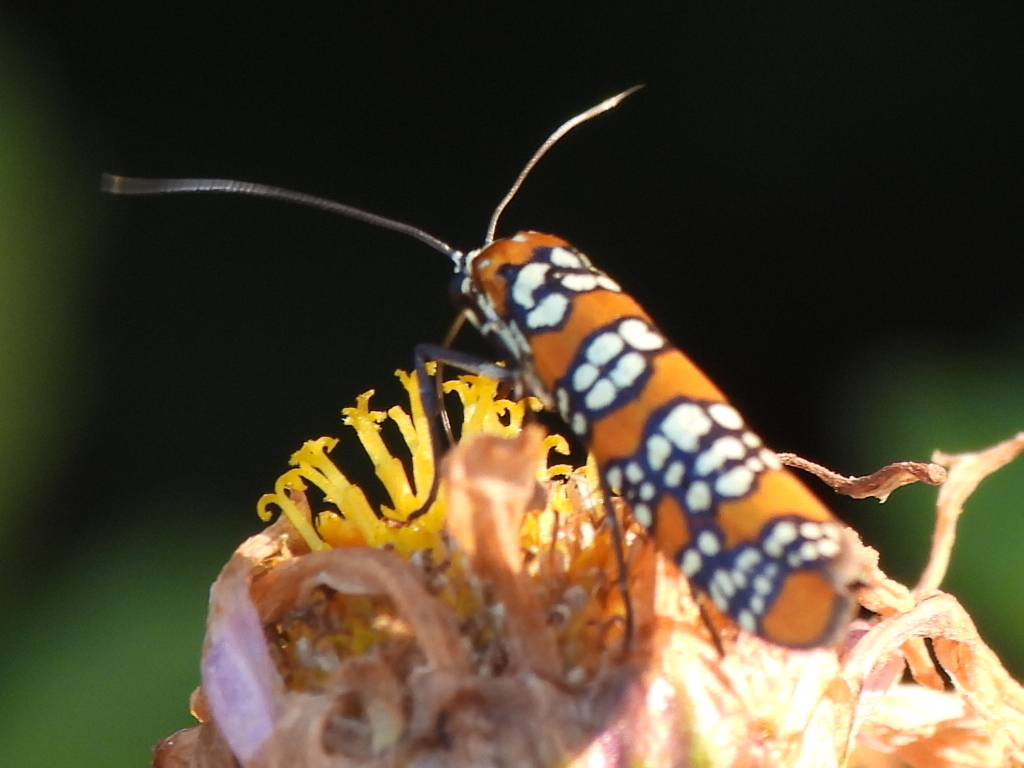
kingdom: Animalia
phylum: Arthropoda
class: Insecta
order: Lepidoptera
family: Attevidae
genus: Atteva
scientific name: Atteva punctella
